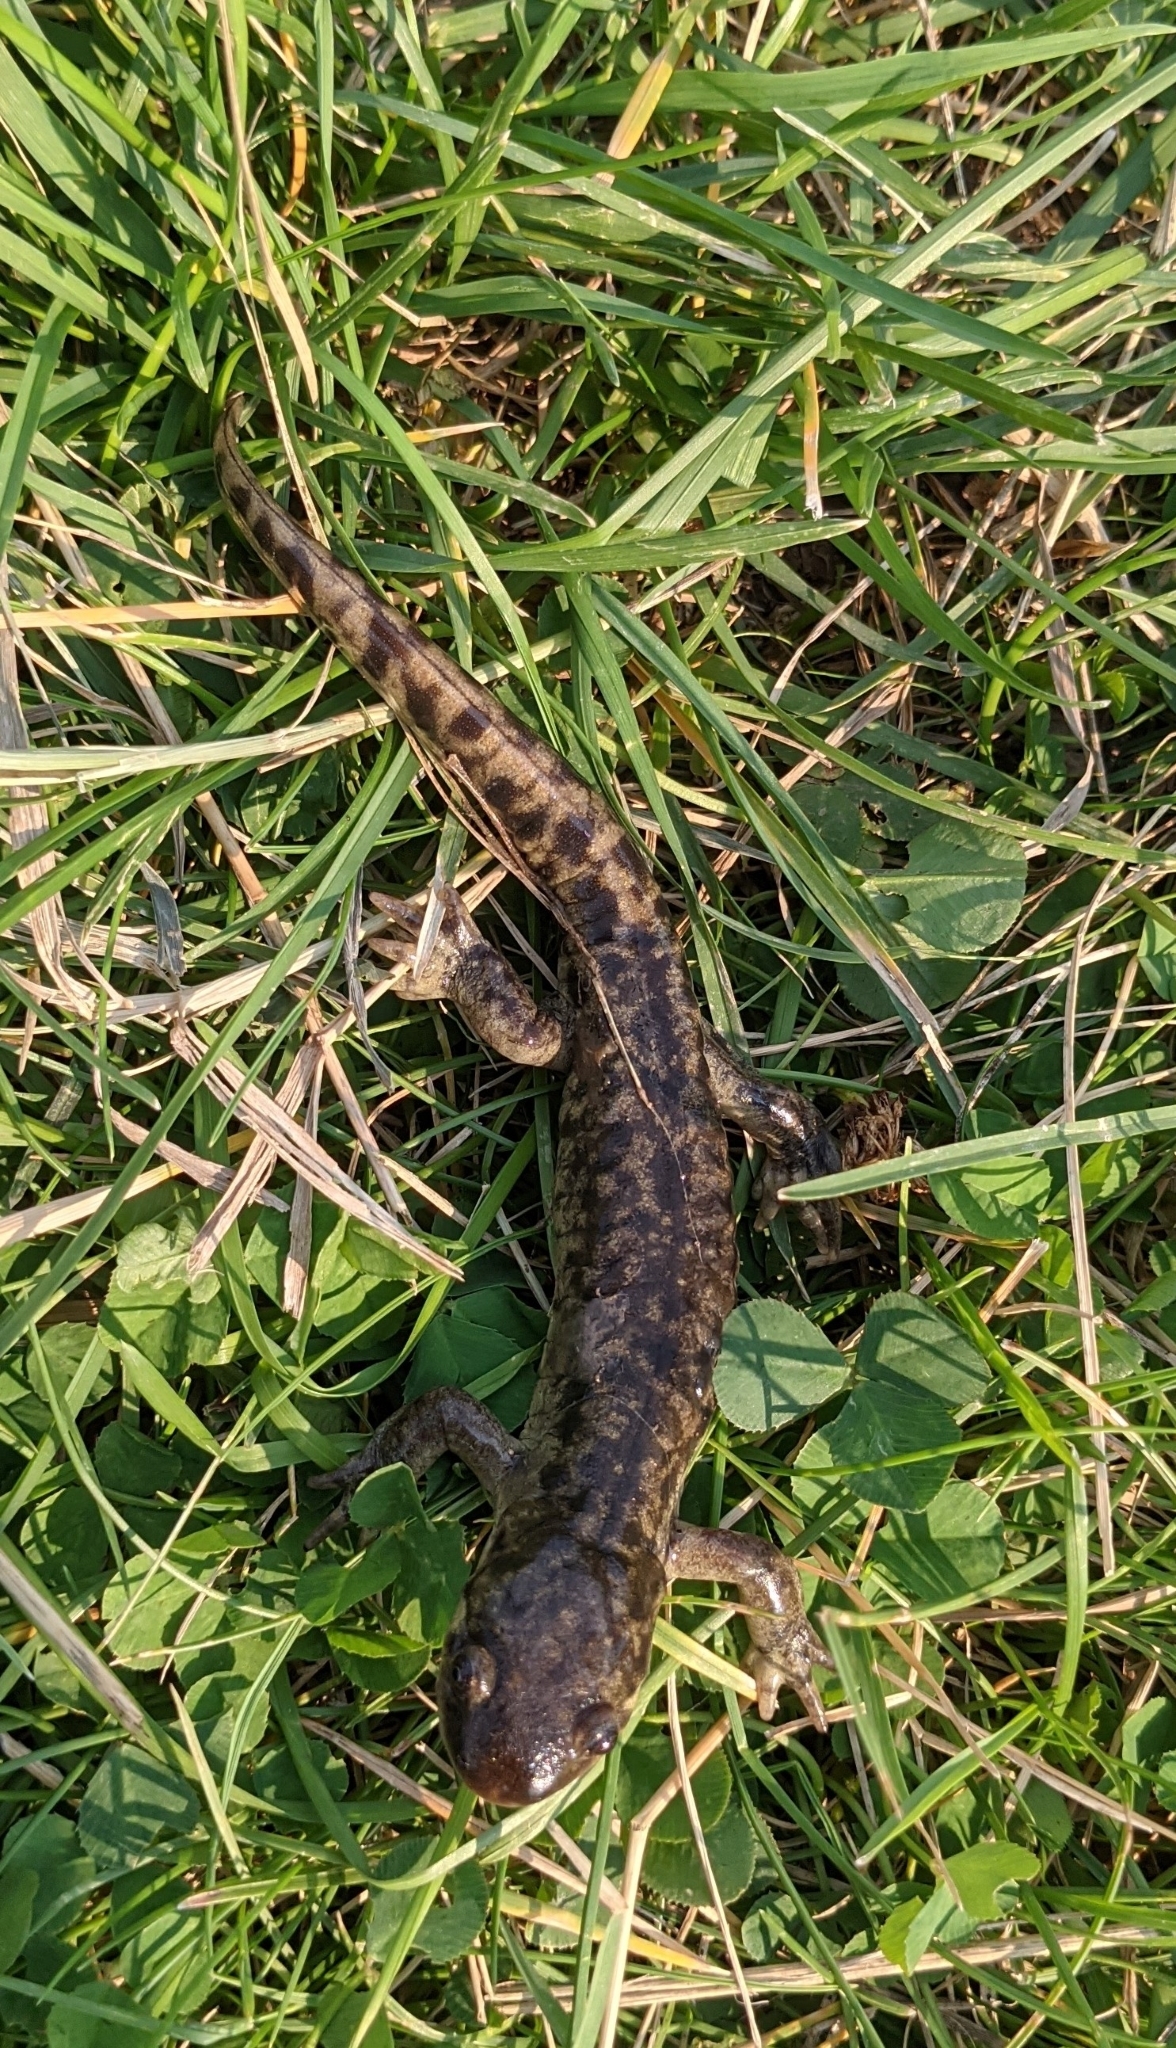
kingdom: Animalia
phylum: Chordata
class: Amphibia
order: Caudata
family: Ambystomatidae
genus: Ambystoma
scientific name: Ambystoma mavortium
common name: Western tiger salamander
